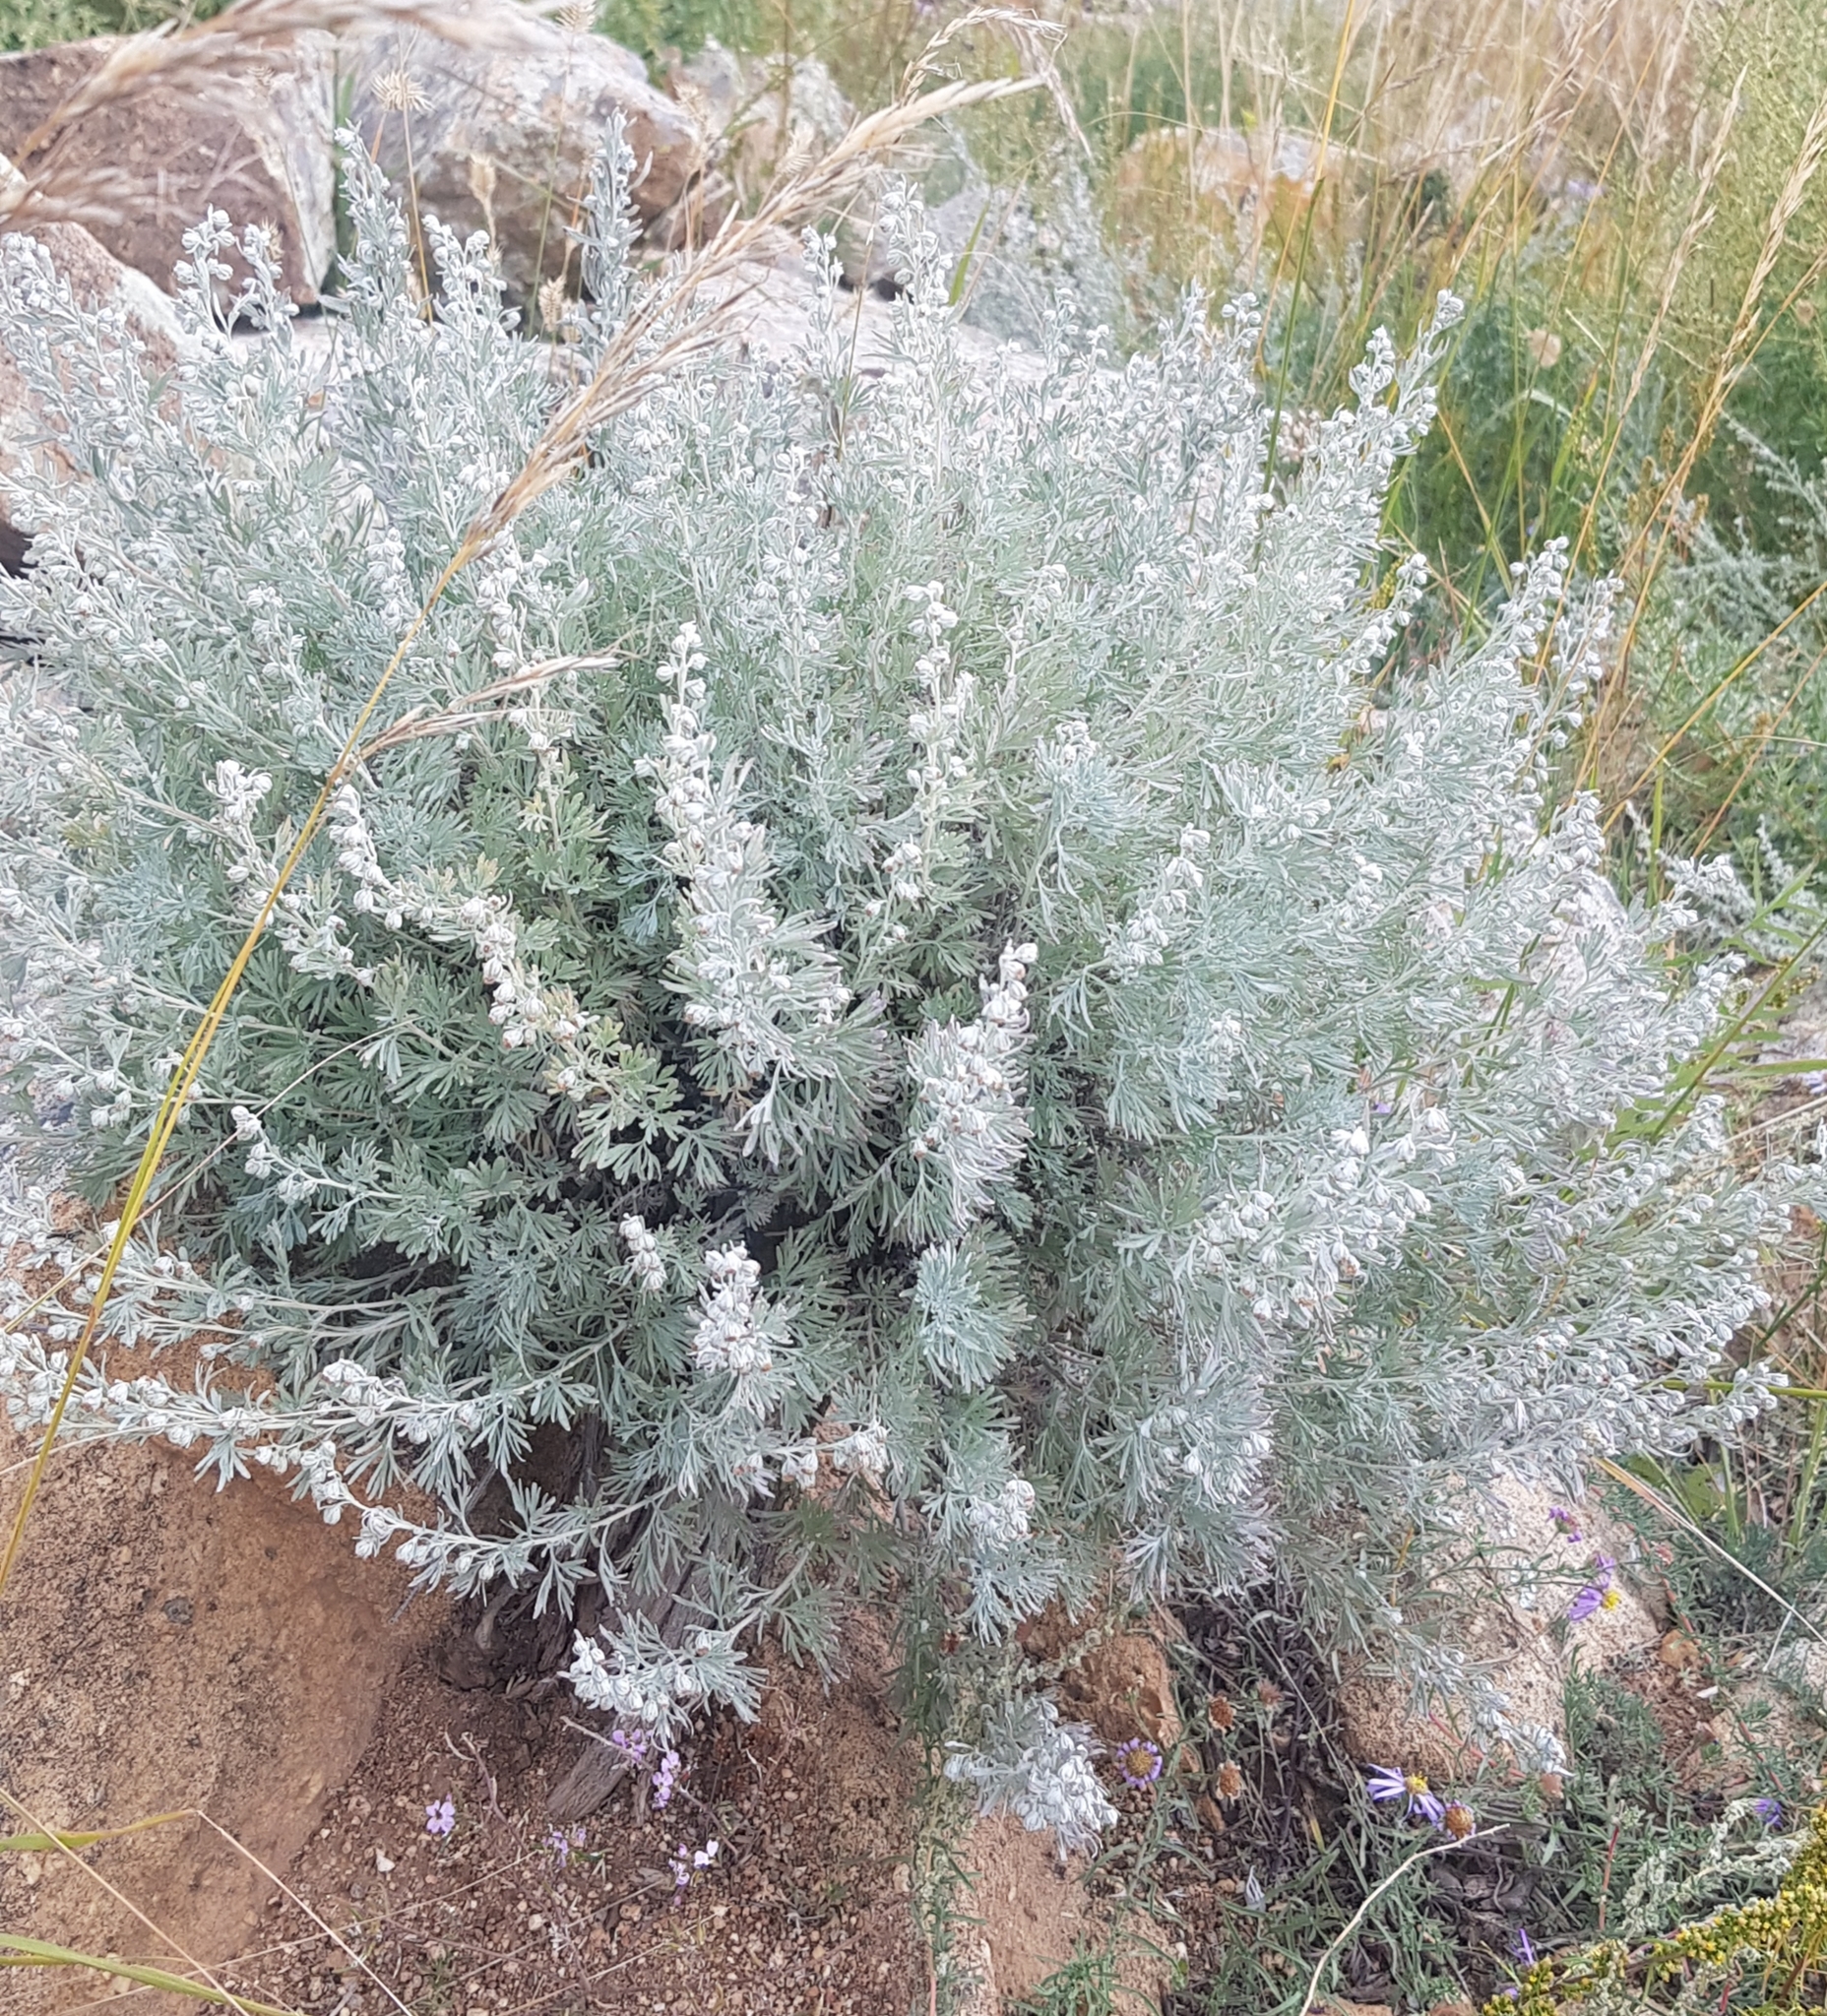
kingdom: Plantae
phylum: Tracheophyta
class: Magnoliopsida
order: Asterales
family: Asteraceae
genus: Artemisia
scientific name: Artemisia rutifolia
